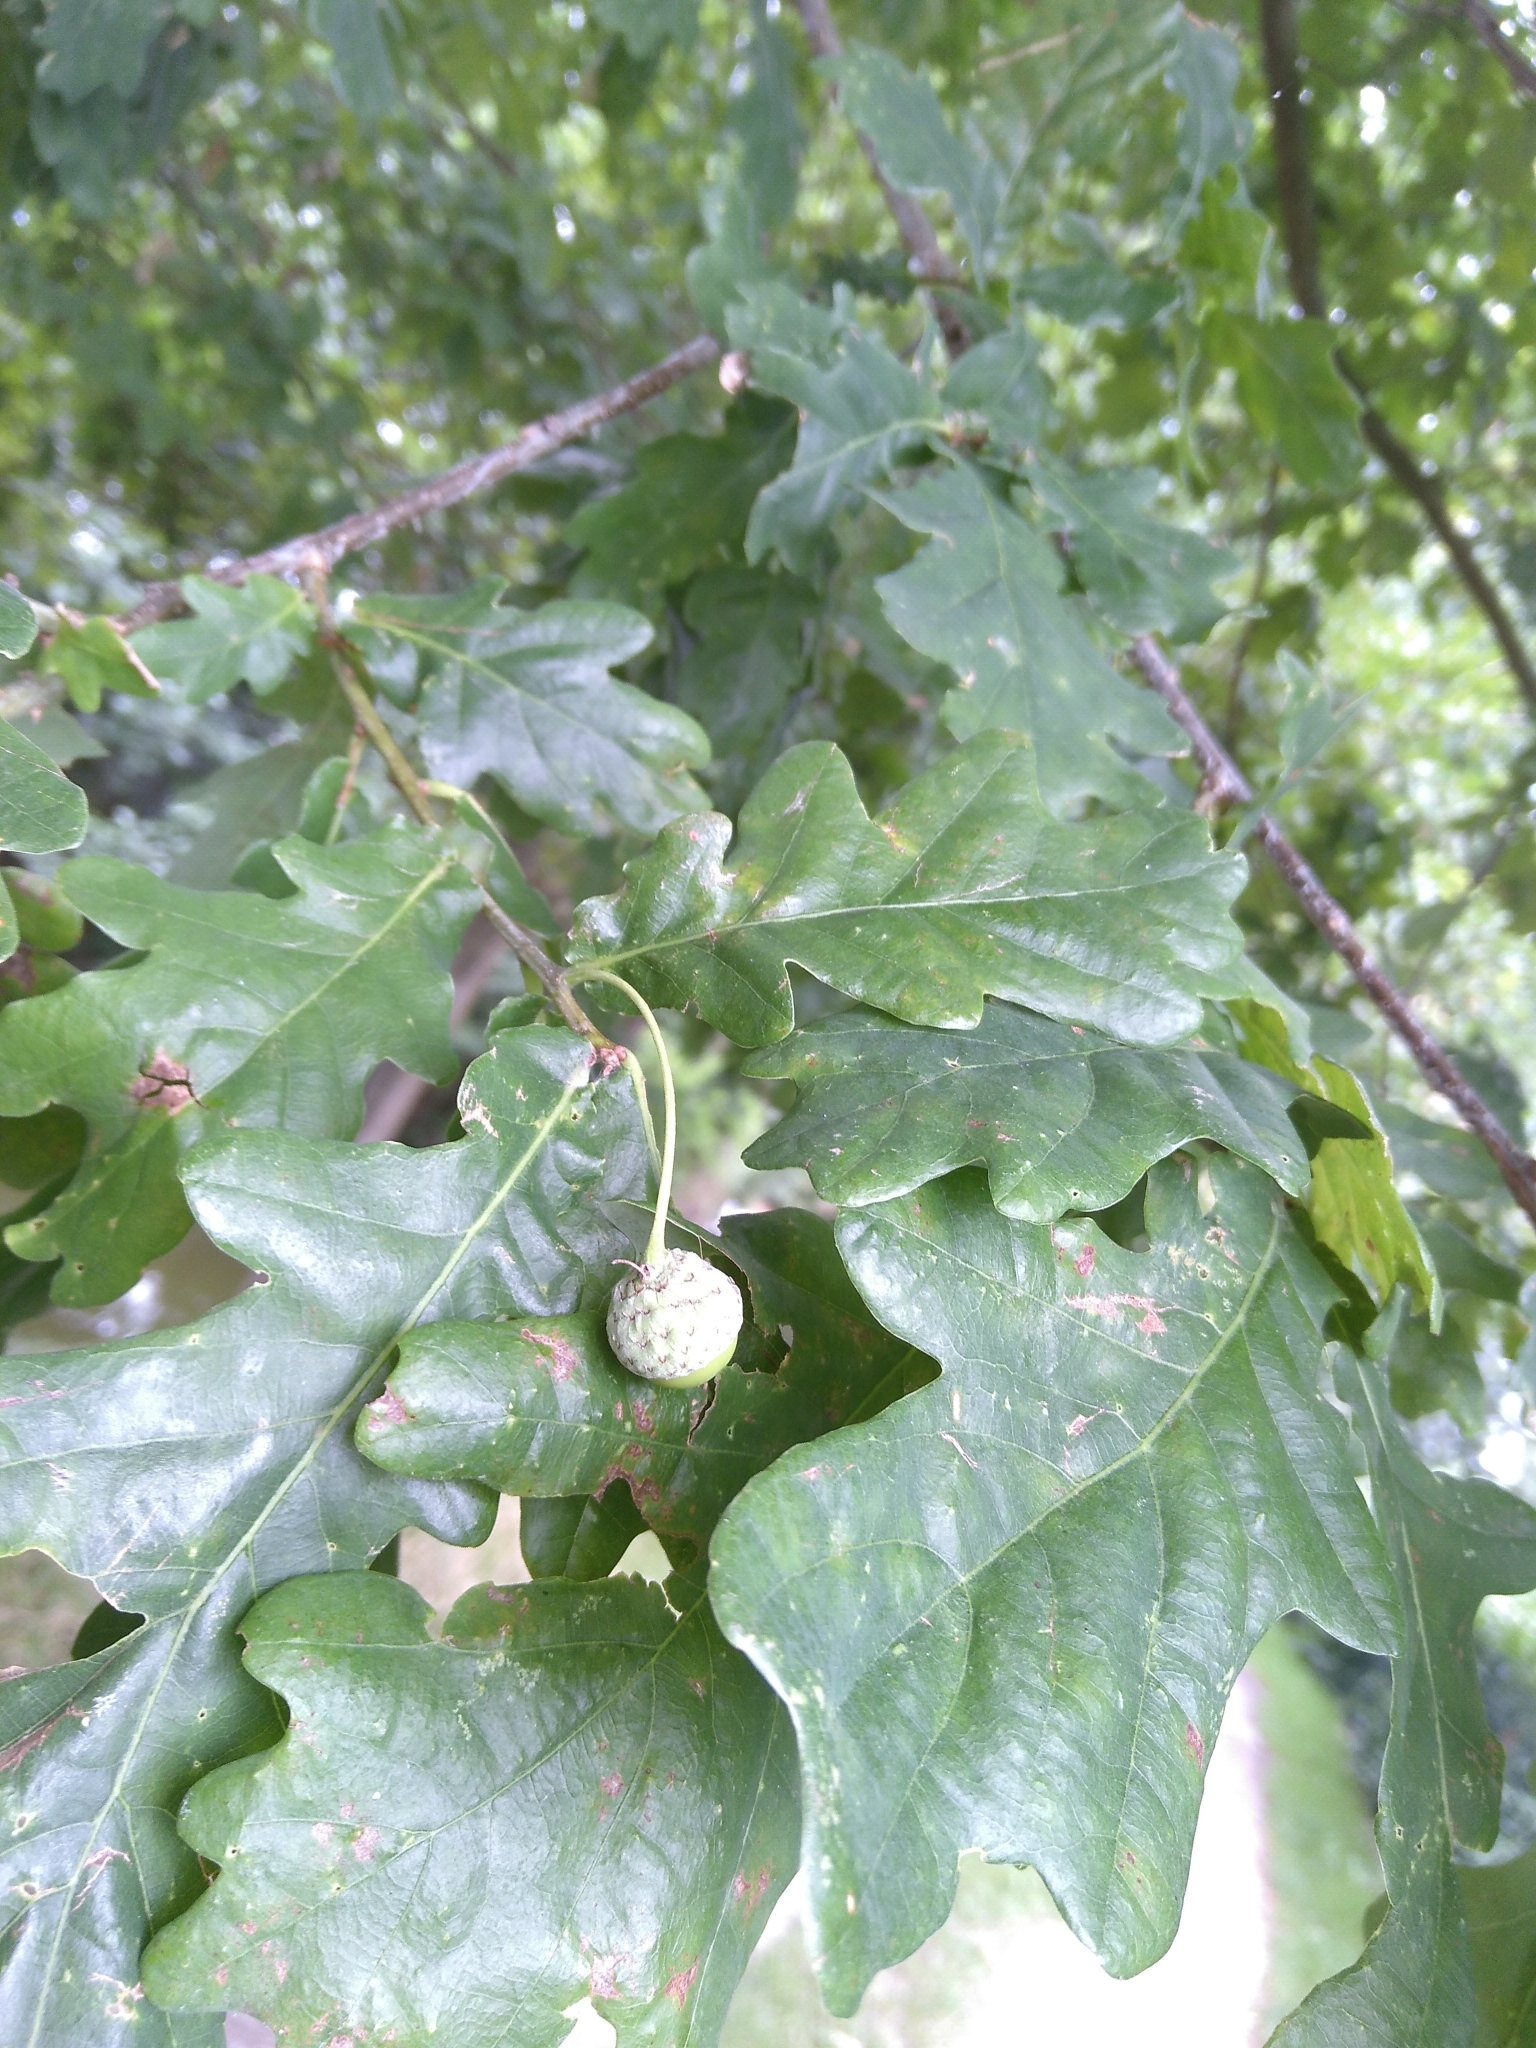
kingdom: Plantae
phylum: Tracheophyta
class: Magnoliopsida
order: Fagales
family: Fagaceae
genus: Quercus
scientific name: Quercus robur
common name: Pedunculate oak
